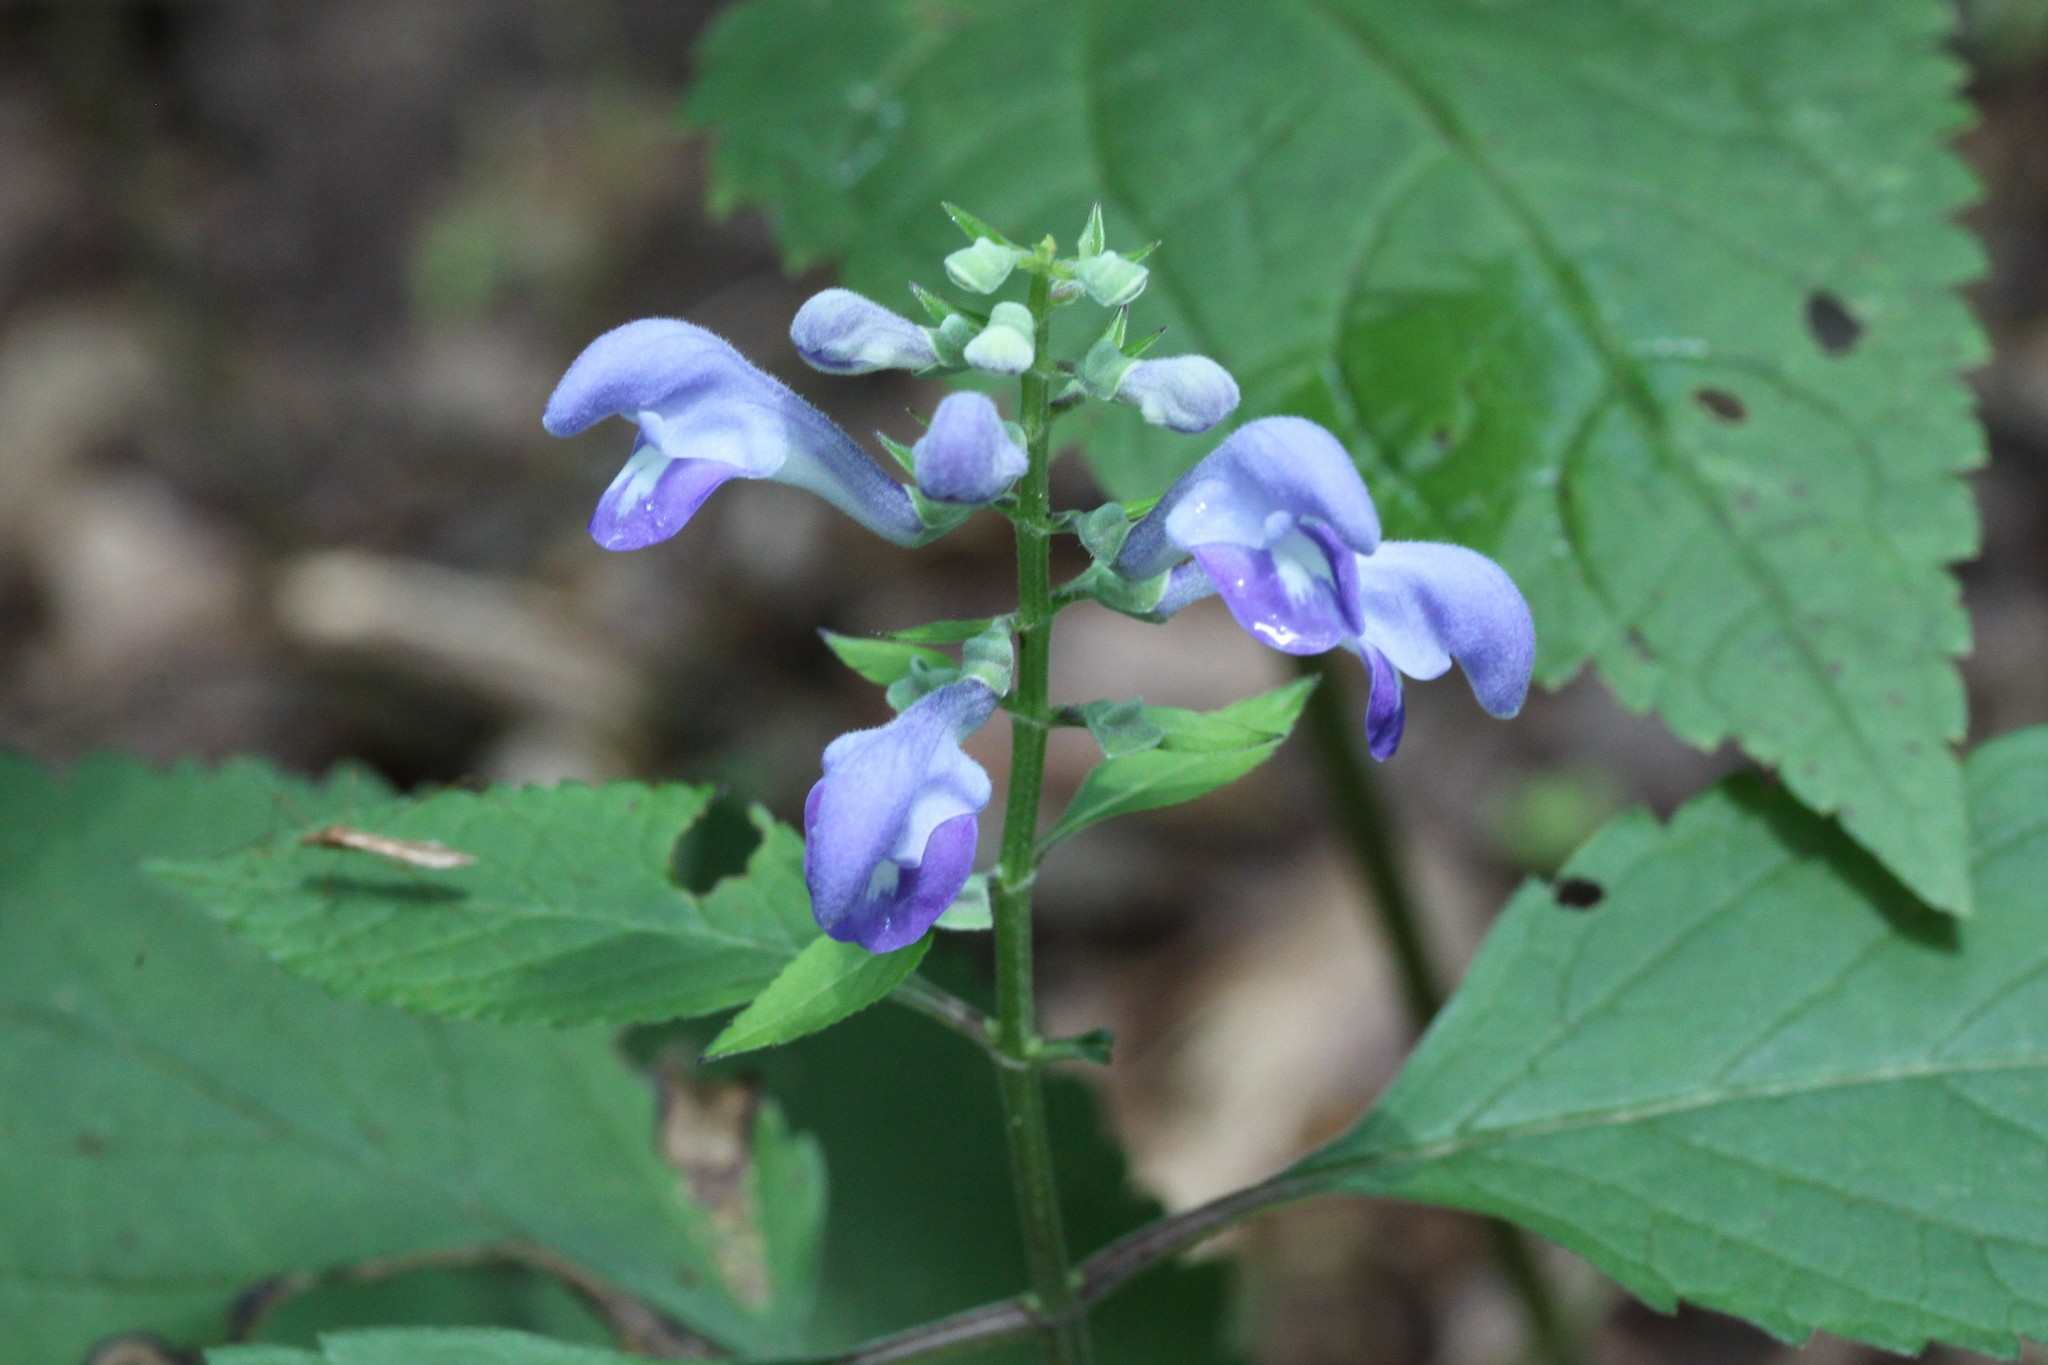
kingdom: Plantae
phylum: Tracheophyta
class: Magnoliopsida
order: Lamiales
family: Lamiaceae
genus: Scutellaria
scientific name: Scutellaria incana
